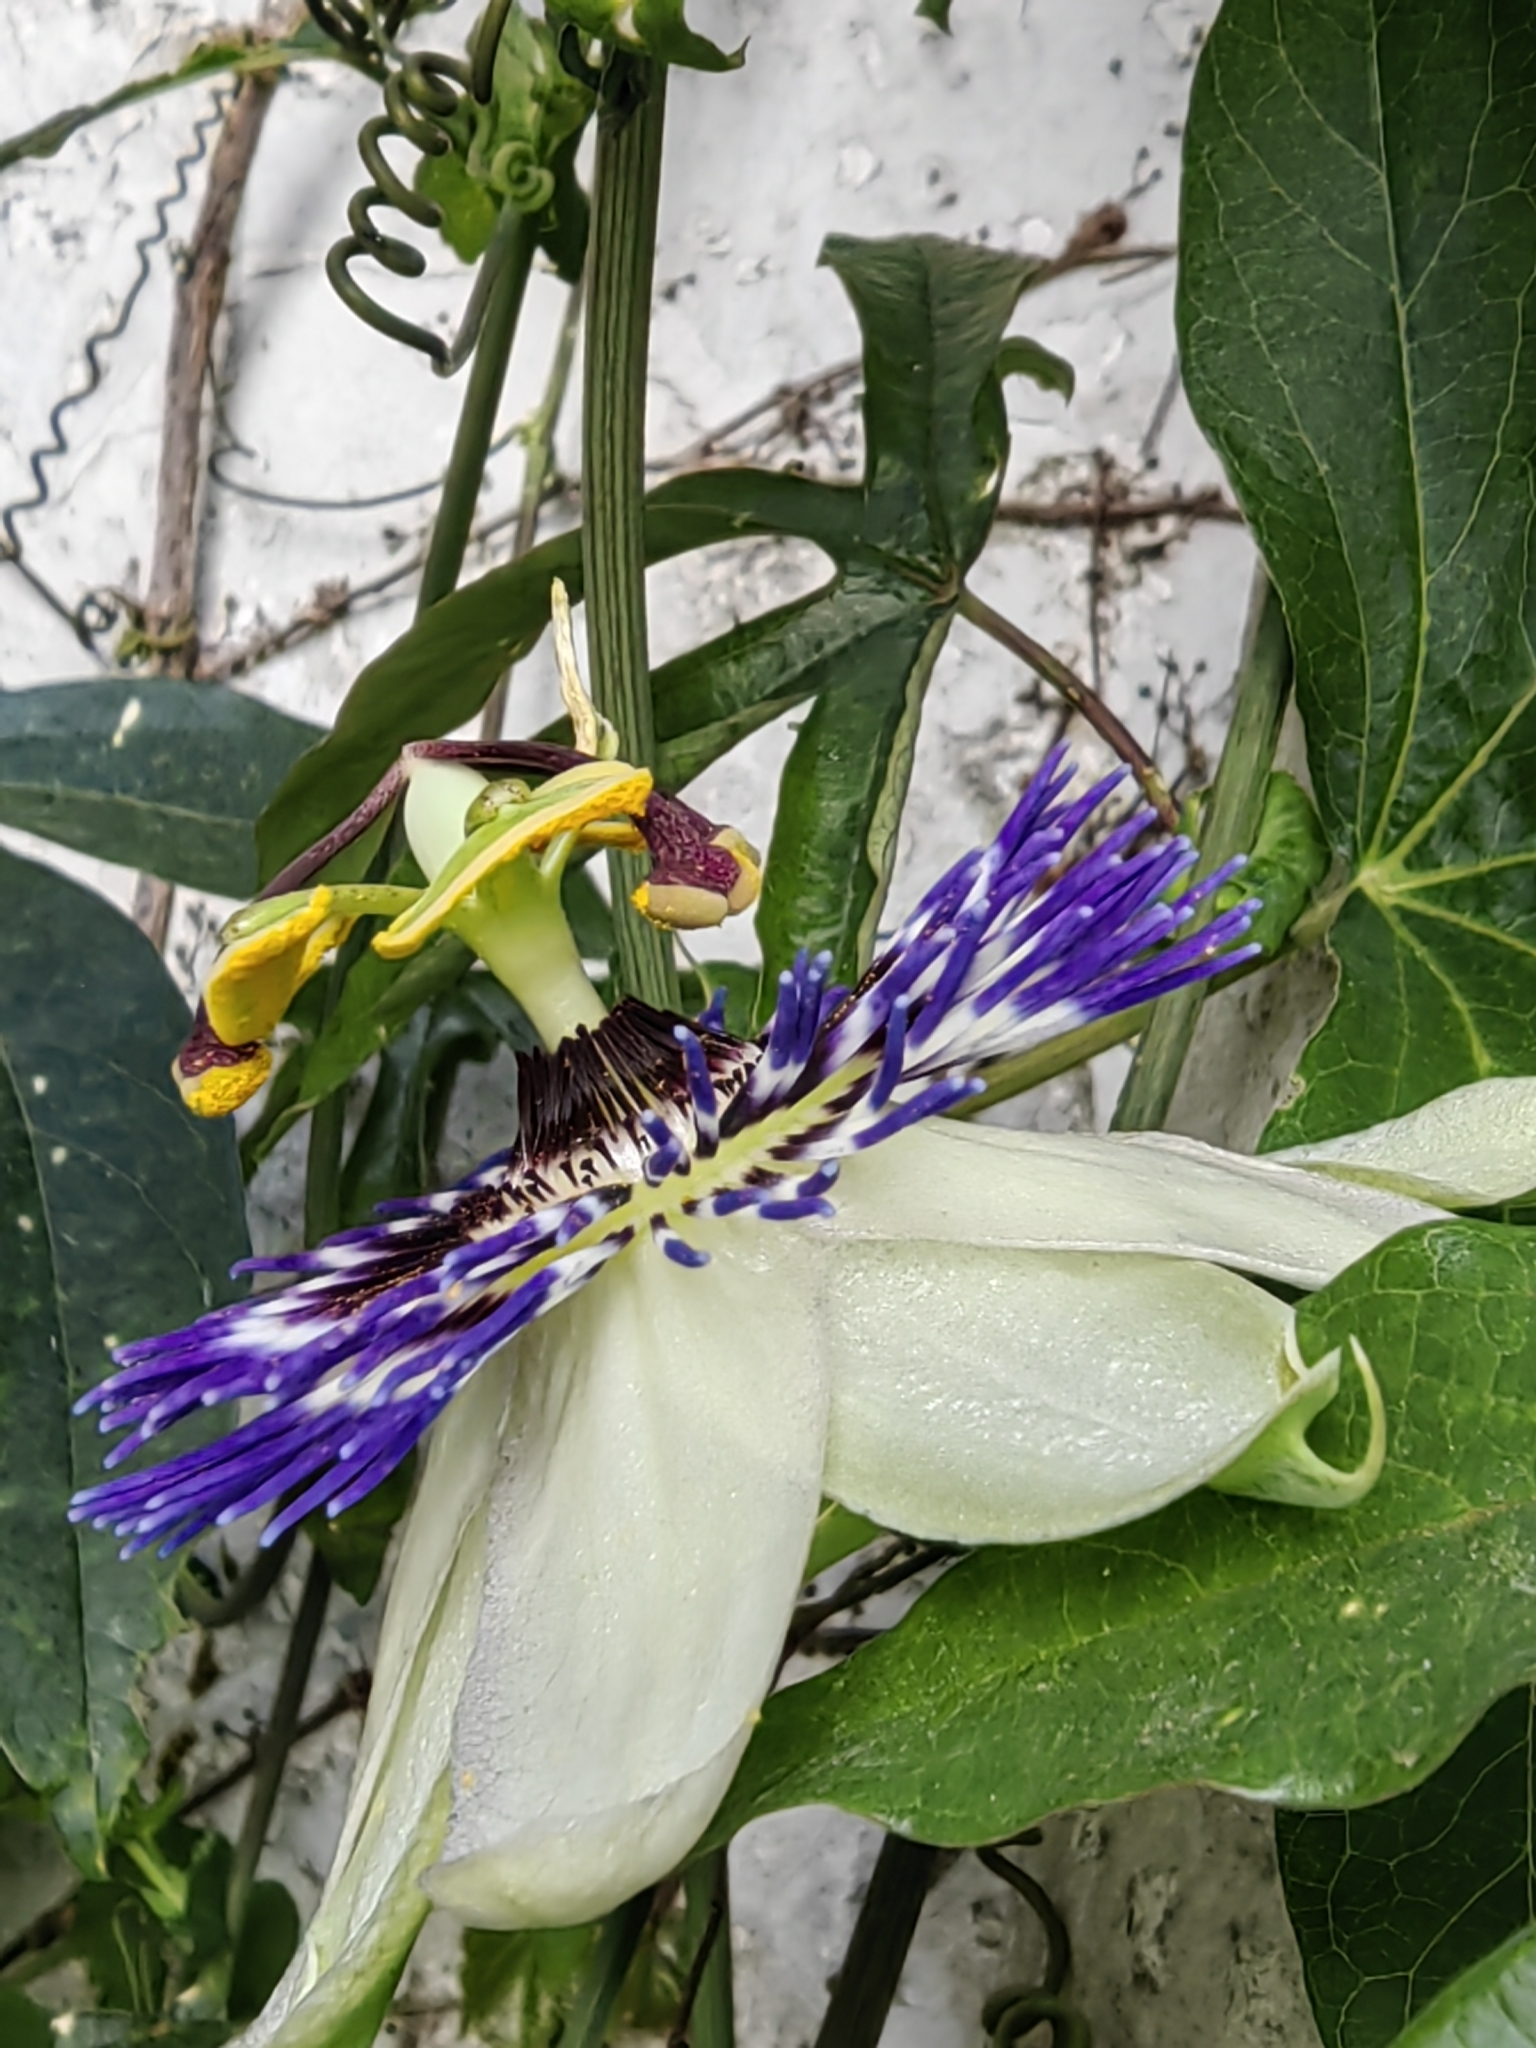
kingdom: Plantae
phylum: Tracheophyta
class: Magnoliopsida
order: Malpighiales
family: Passifloraceae
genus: Passiflora
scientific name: Passiflora caerulea
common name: Blue passionflower
